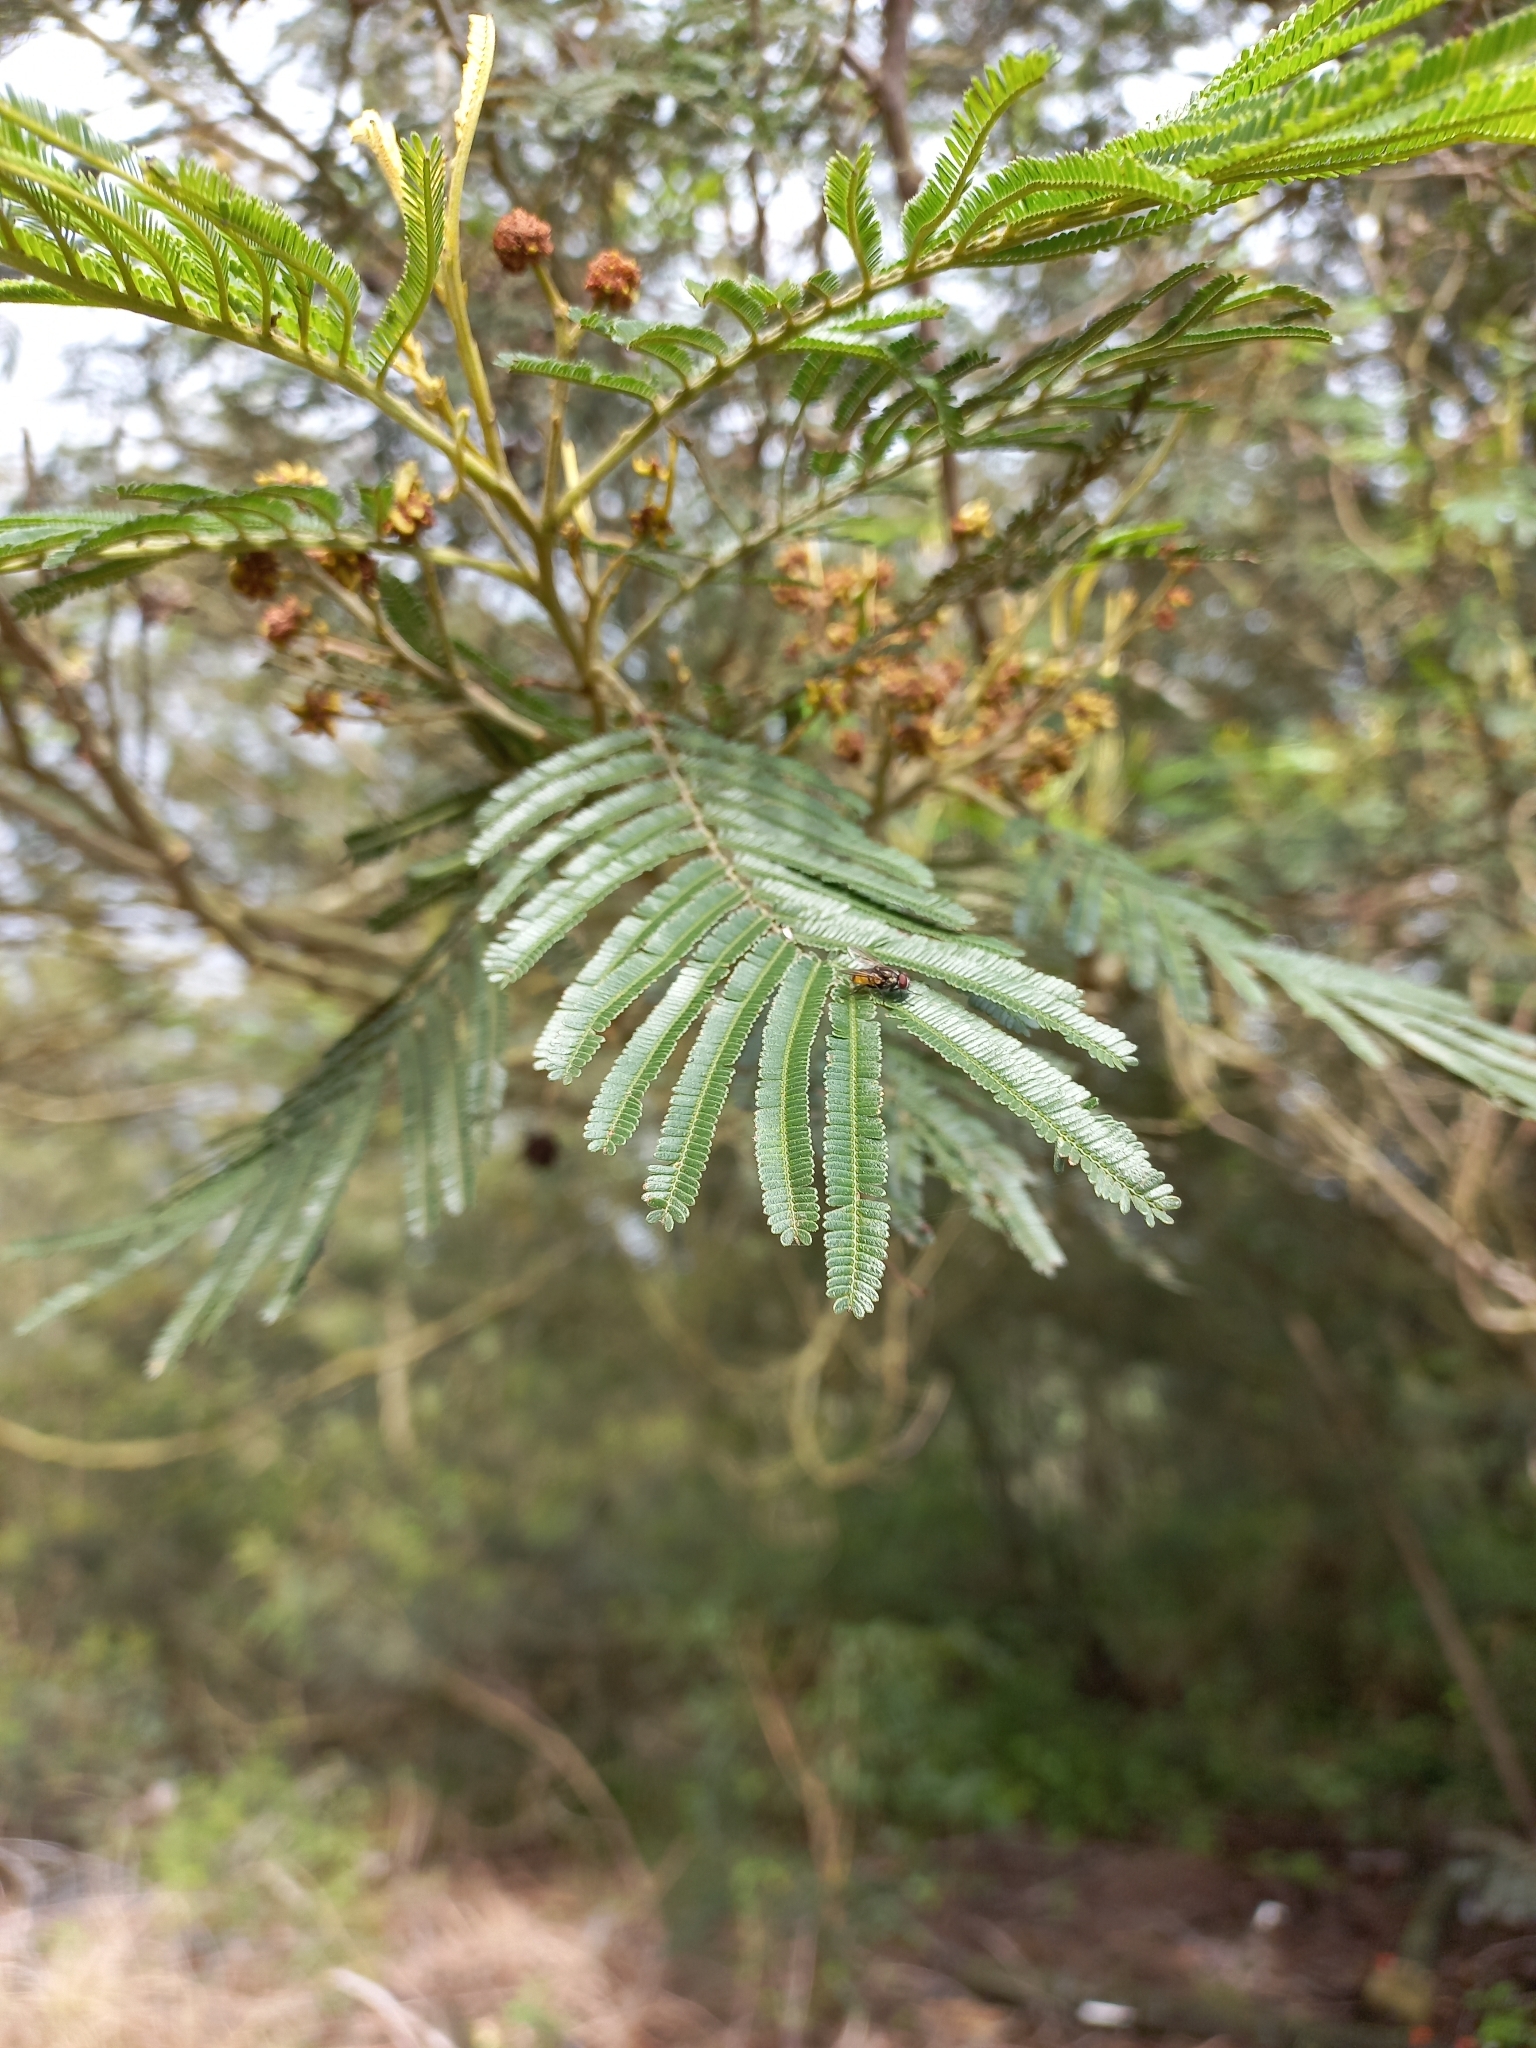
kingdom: Plantae
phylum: Tracheophyta
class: Magnoliopsida
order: Fabales
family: Fabaceae
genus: Acacia
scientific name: Acacia mearnsii
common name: Black wattle
